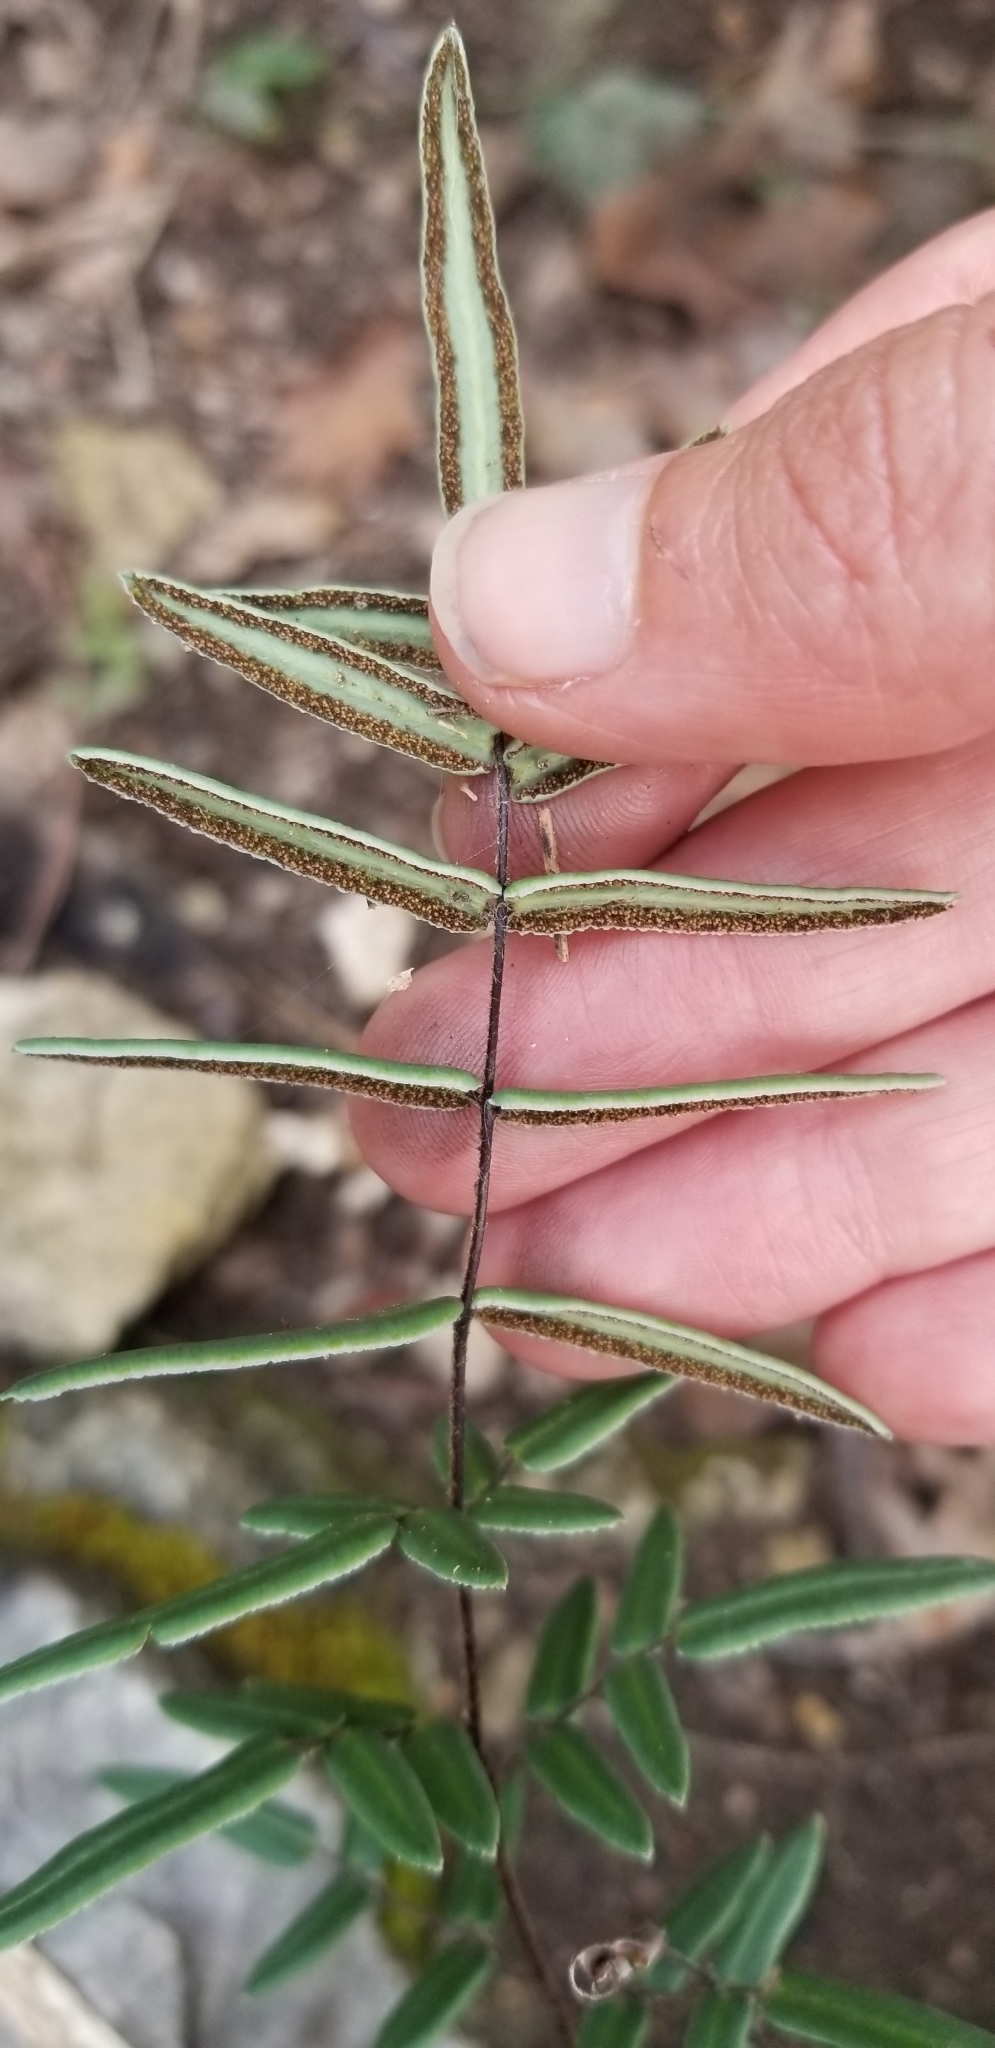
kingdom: Plantae
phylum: Tracheophyta
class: Polypodiopsida
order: Polypodiales
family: Pteridaceae
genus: Pellaea
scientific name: Pellaea atropurpurea
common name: Hairy cliffbrake
